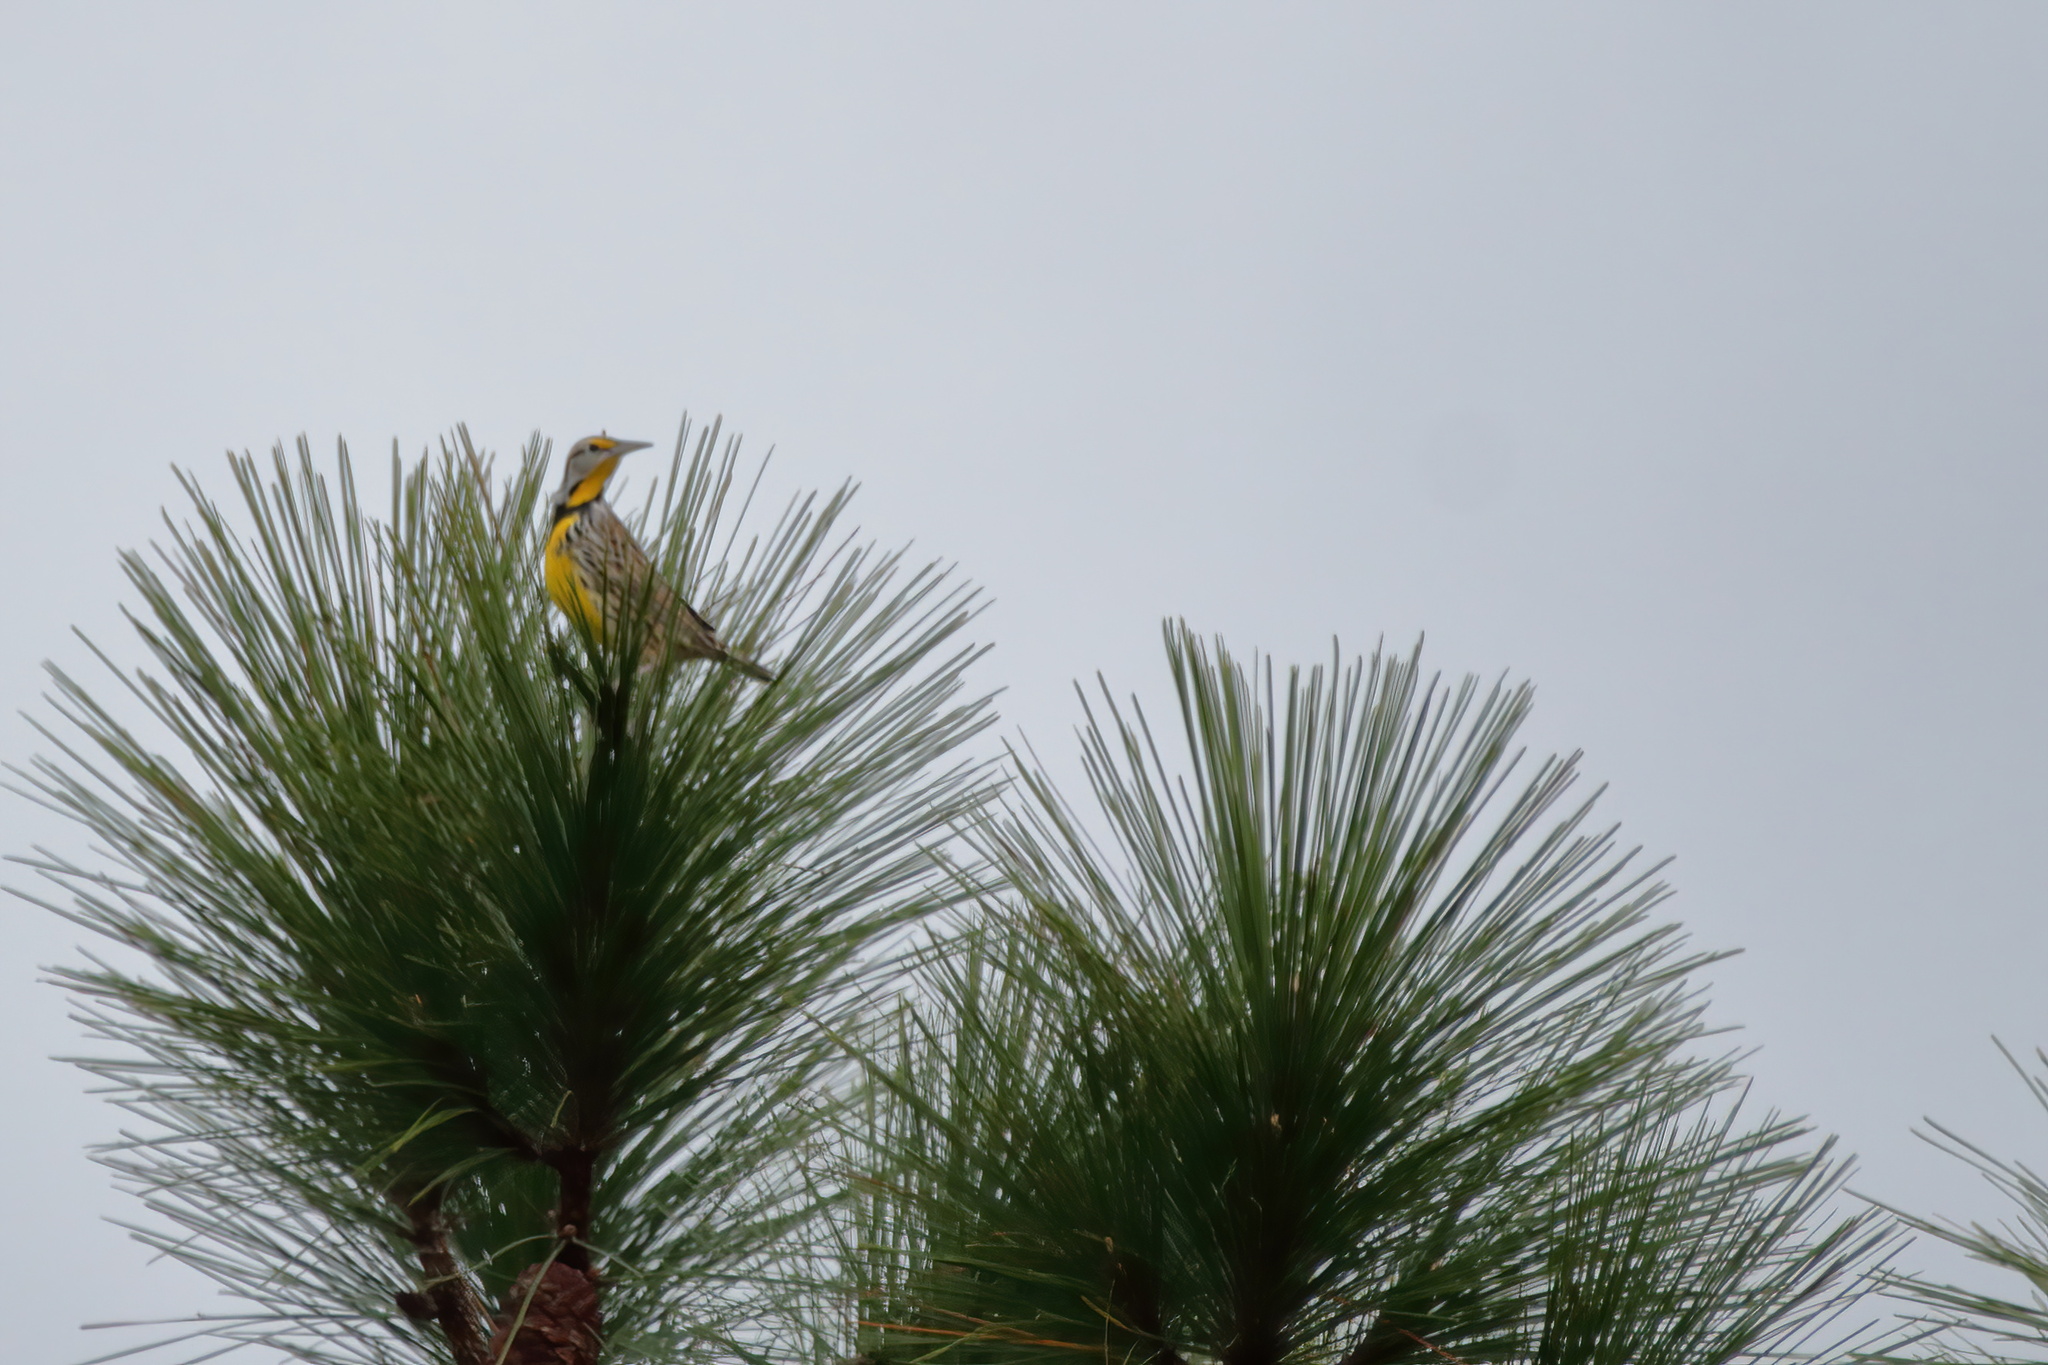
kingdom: Animalia
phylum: Chordata
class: Aves
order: Passeriformes
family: Icteridae
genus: Sturnella
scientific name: Sturnella magna
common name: Eastern meadowlark
